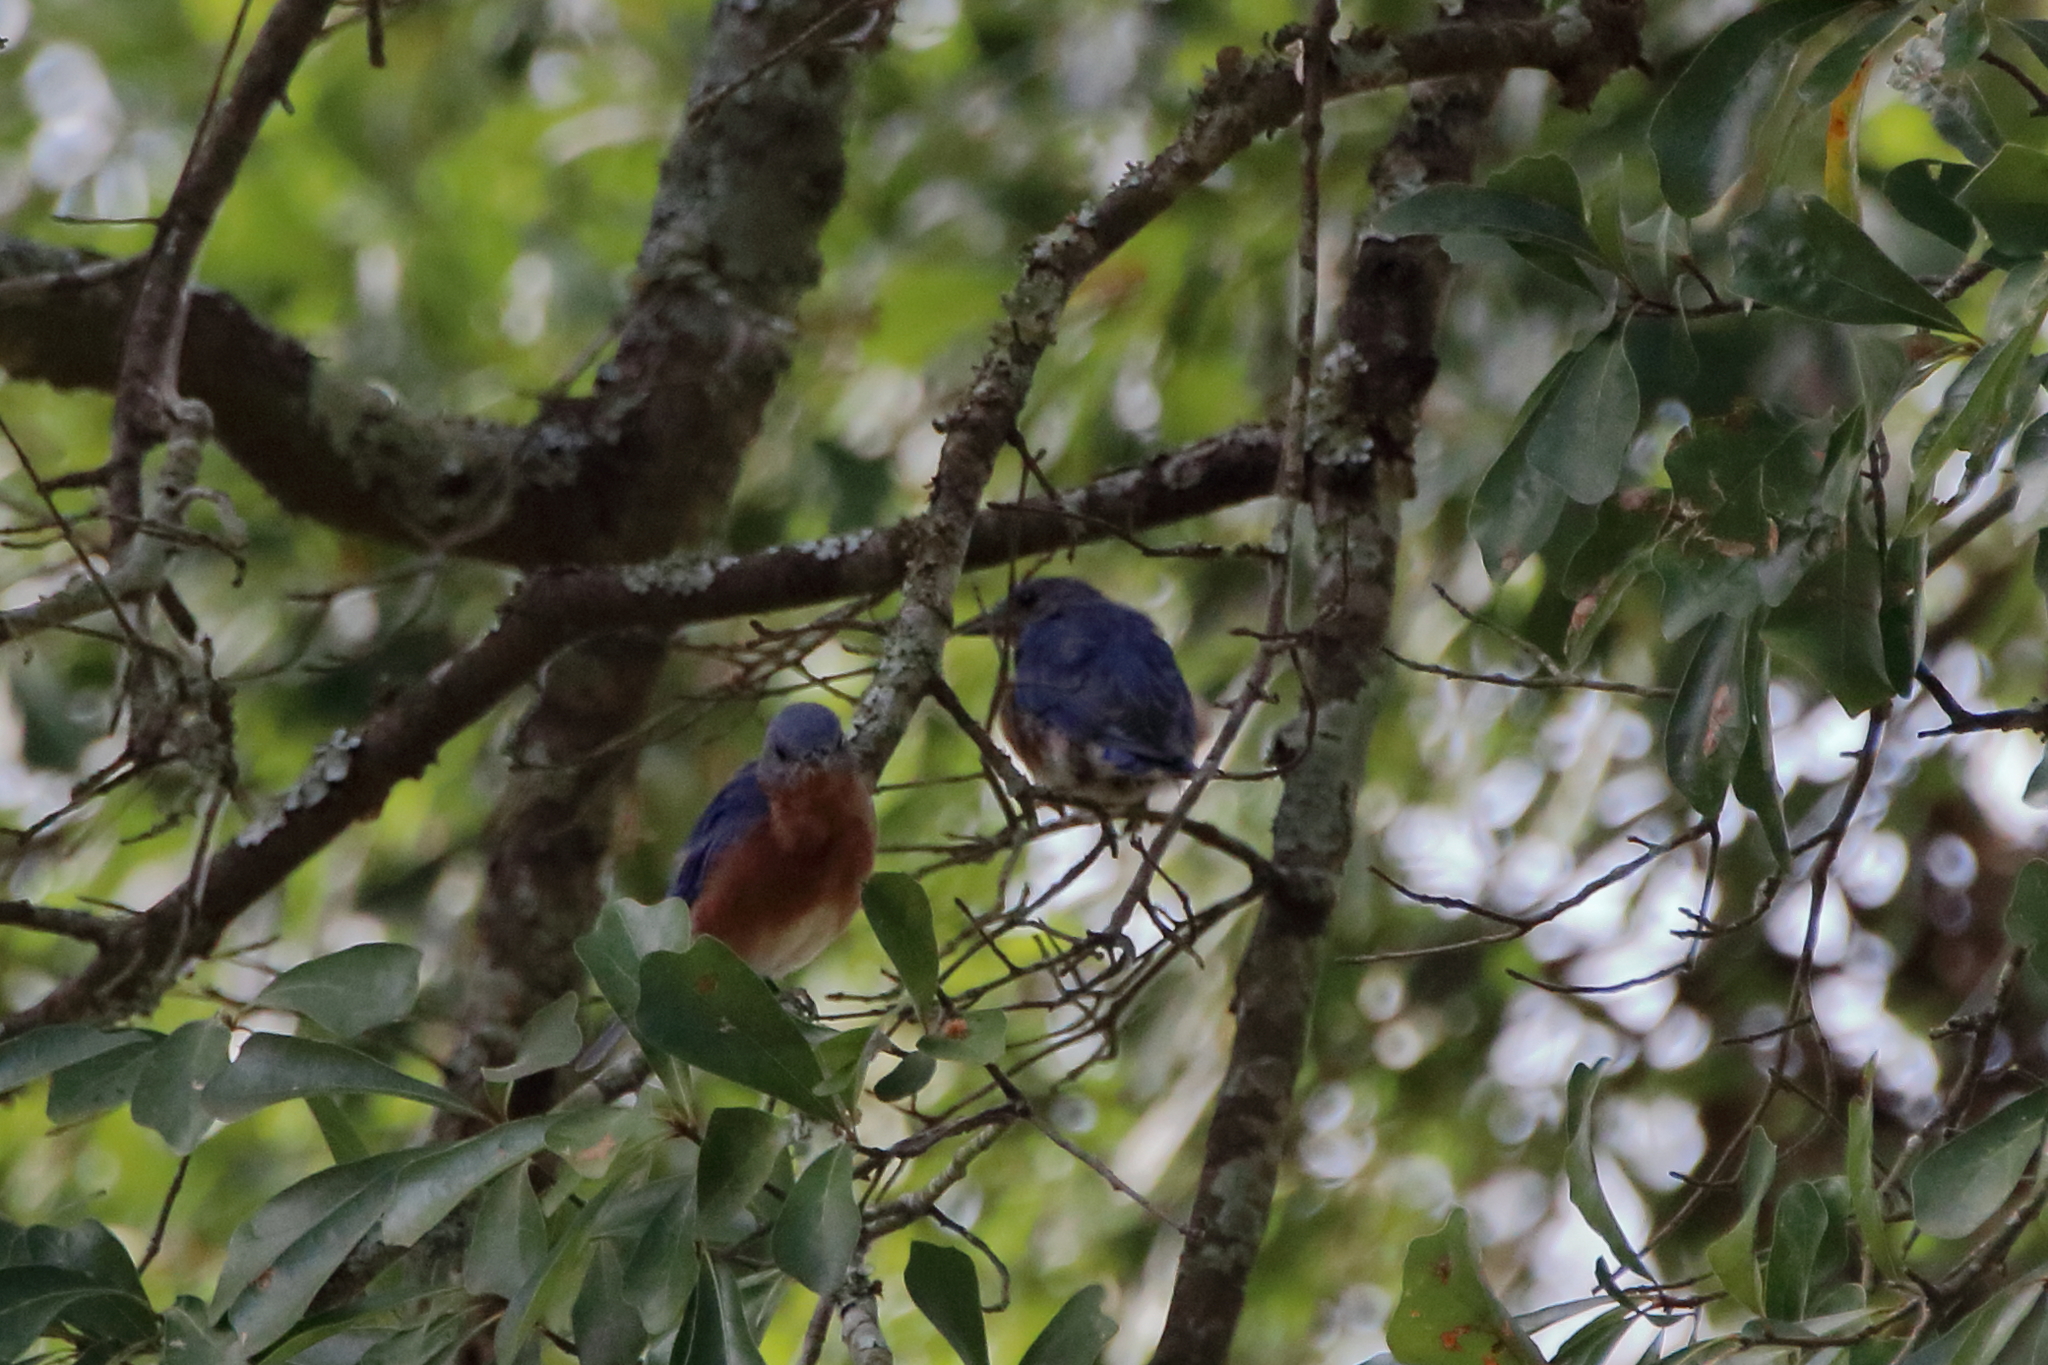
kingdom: Animalia
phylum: Chordata
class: Aves
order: Passeriformes
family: Turdidae
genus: Sialia
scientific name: Sialia sialis
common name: Eastern bluebird
